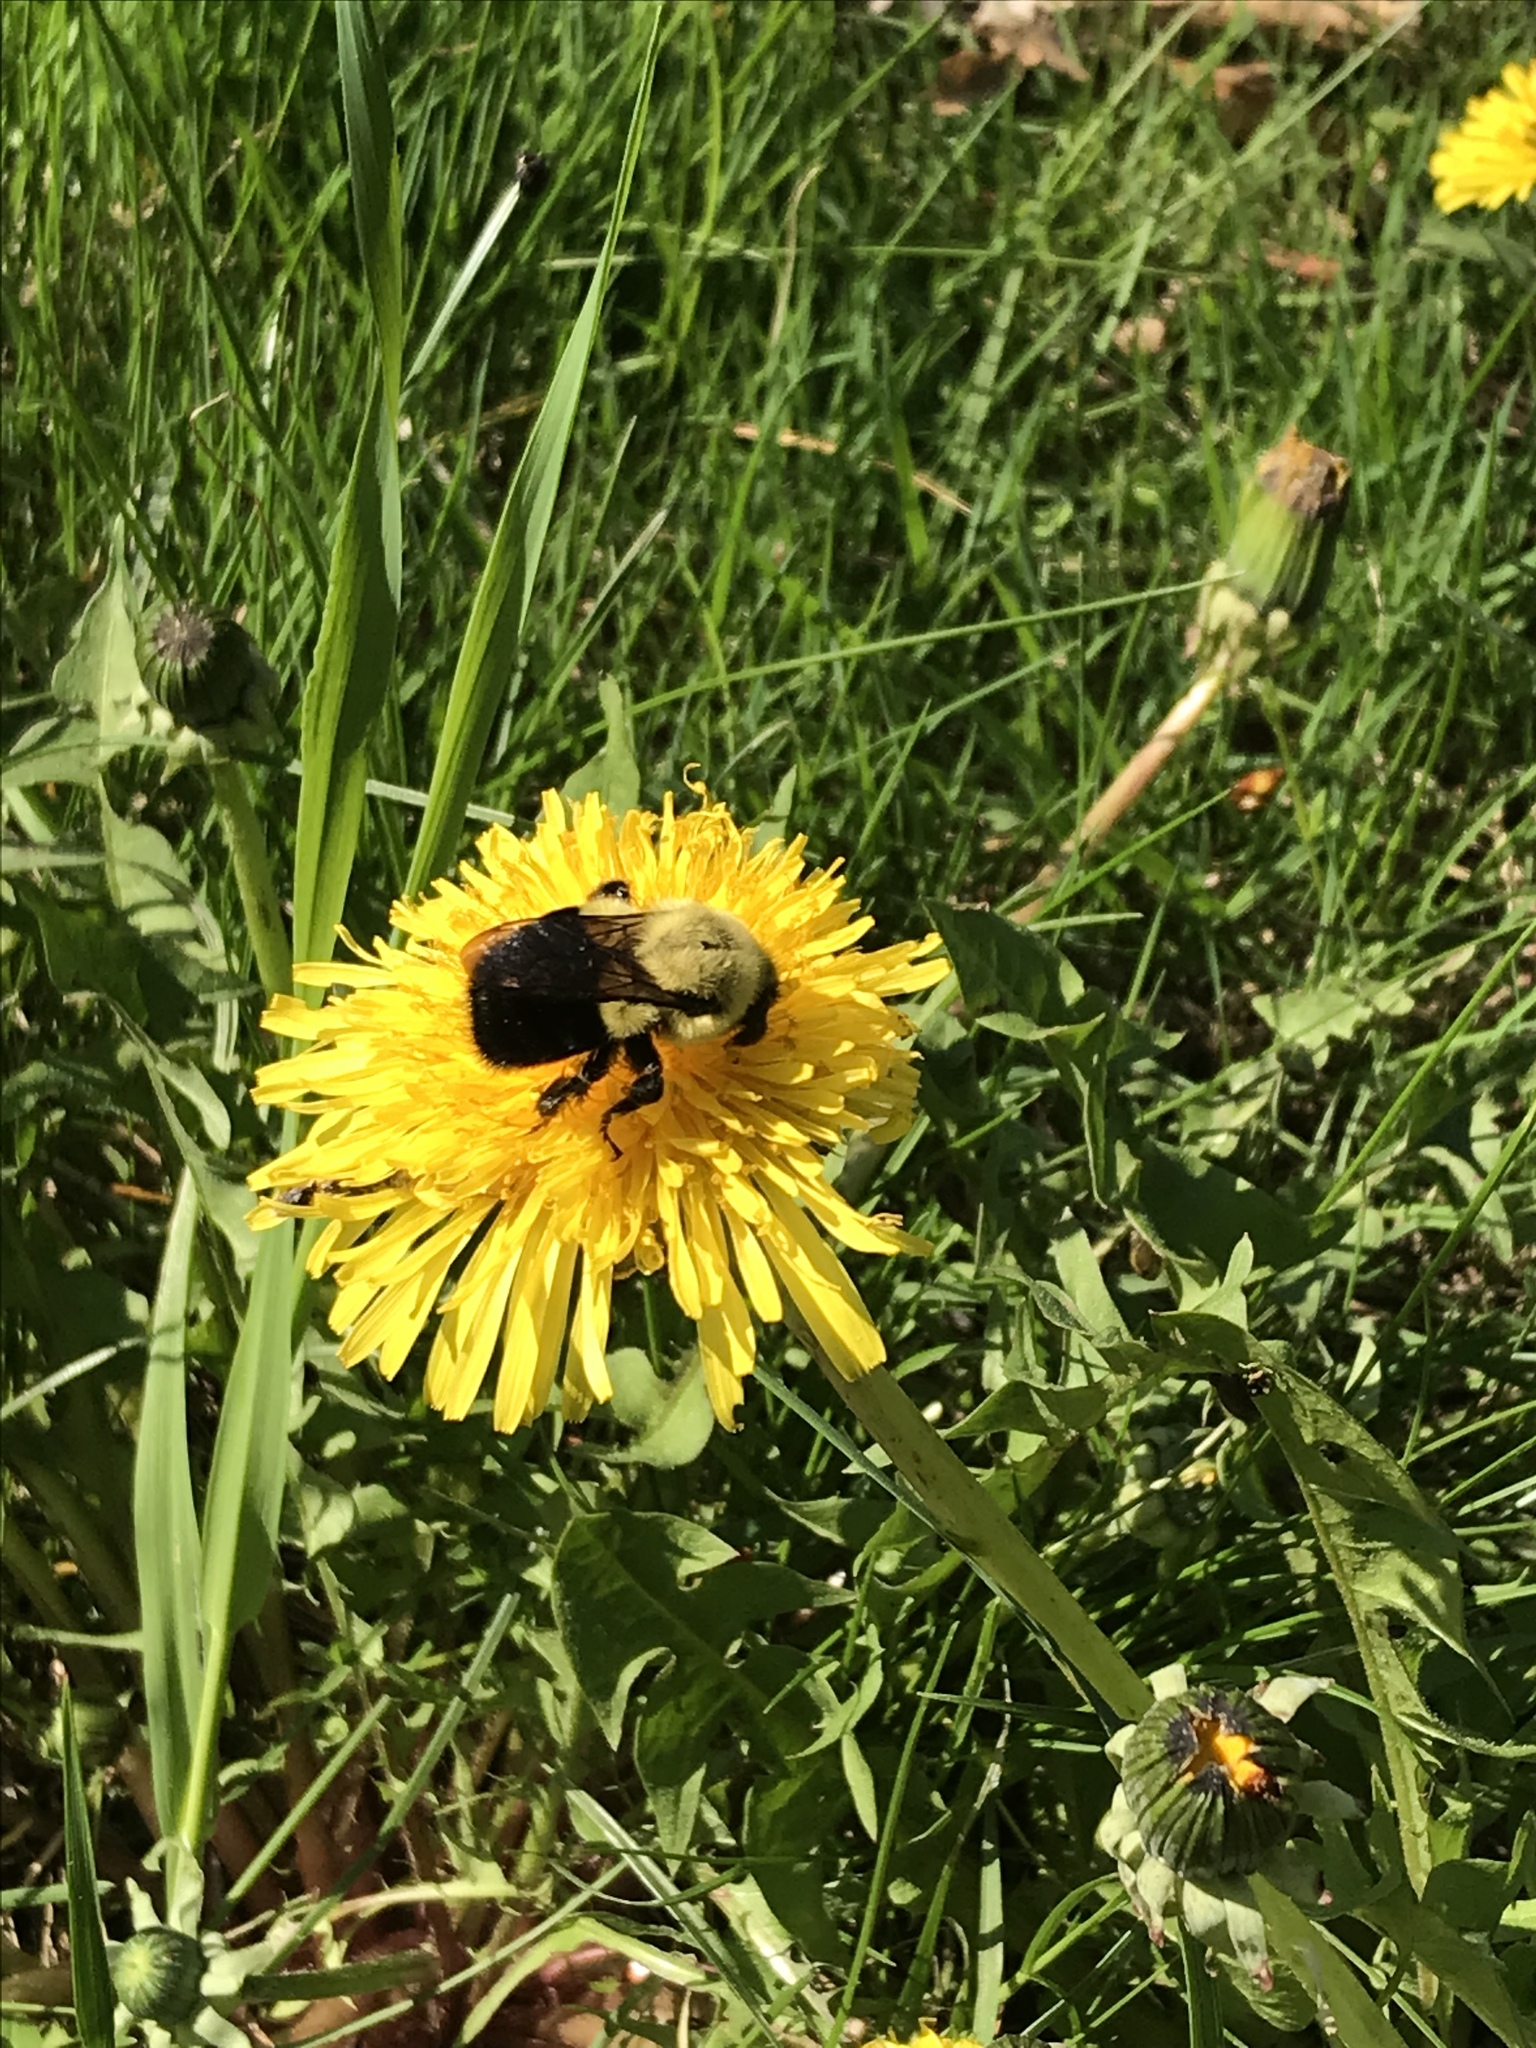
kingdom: Animalia
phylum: Arthropoda
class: Insecta
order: Hymenoptera
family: Apidae
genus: Bombus
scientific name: Bombus impatiens
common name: Common eastern bumble bee
